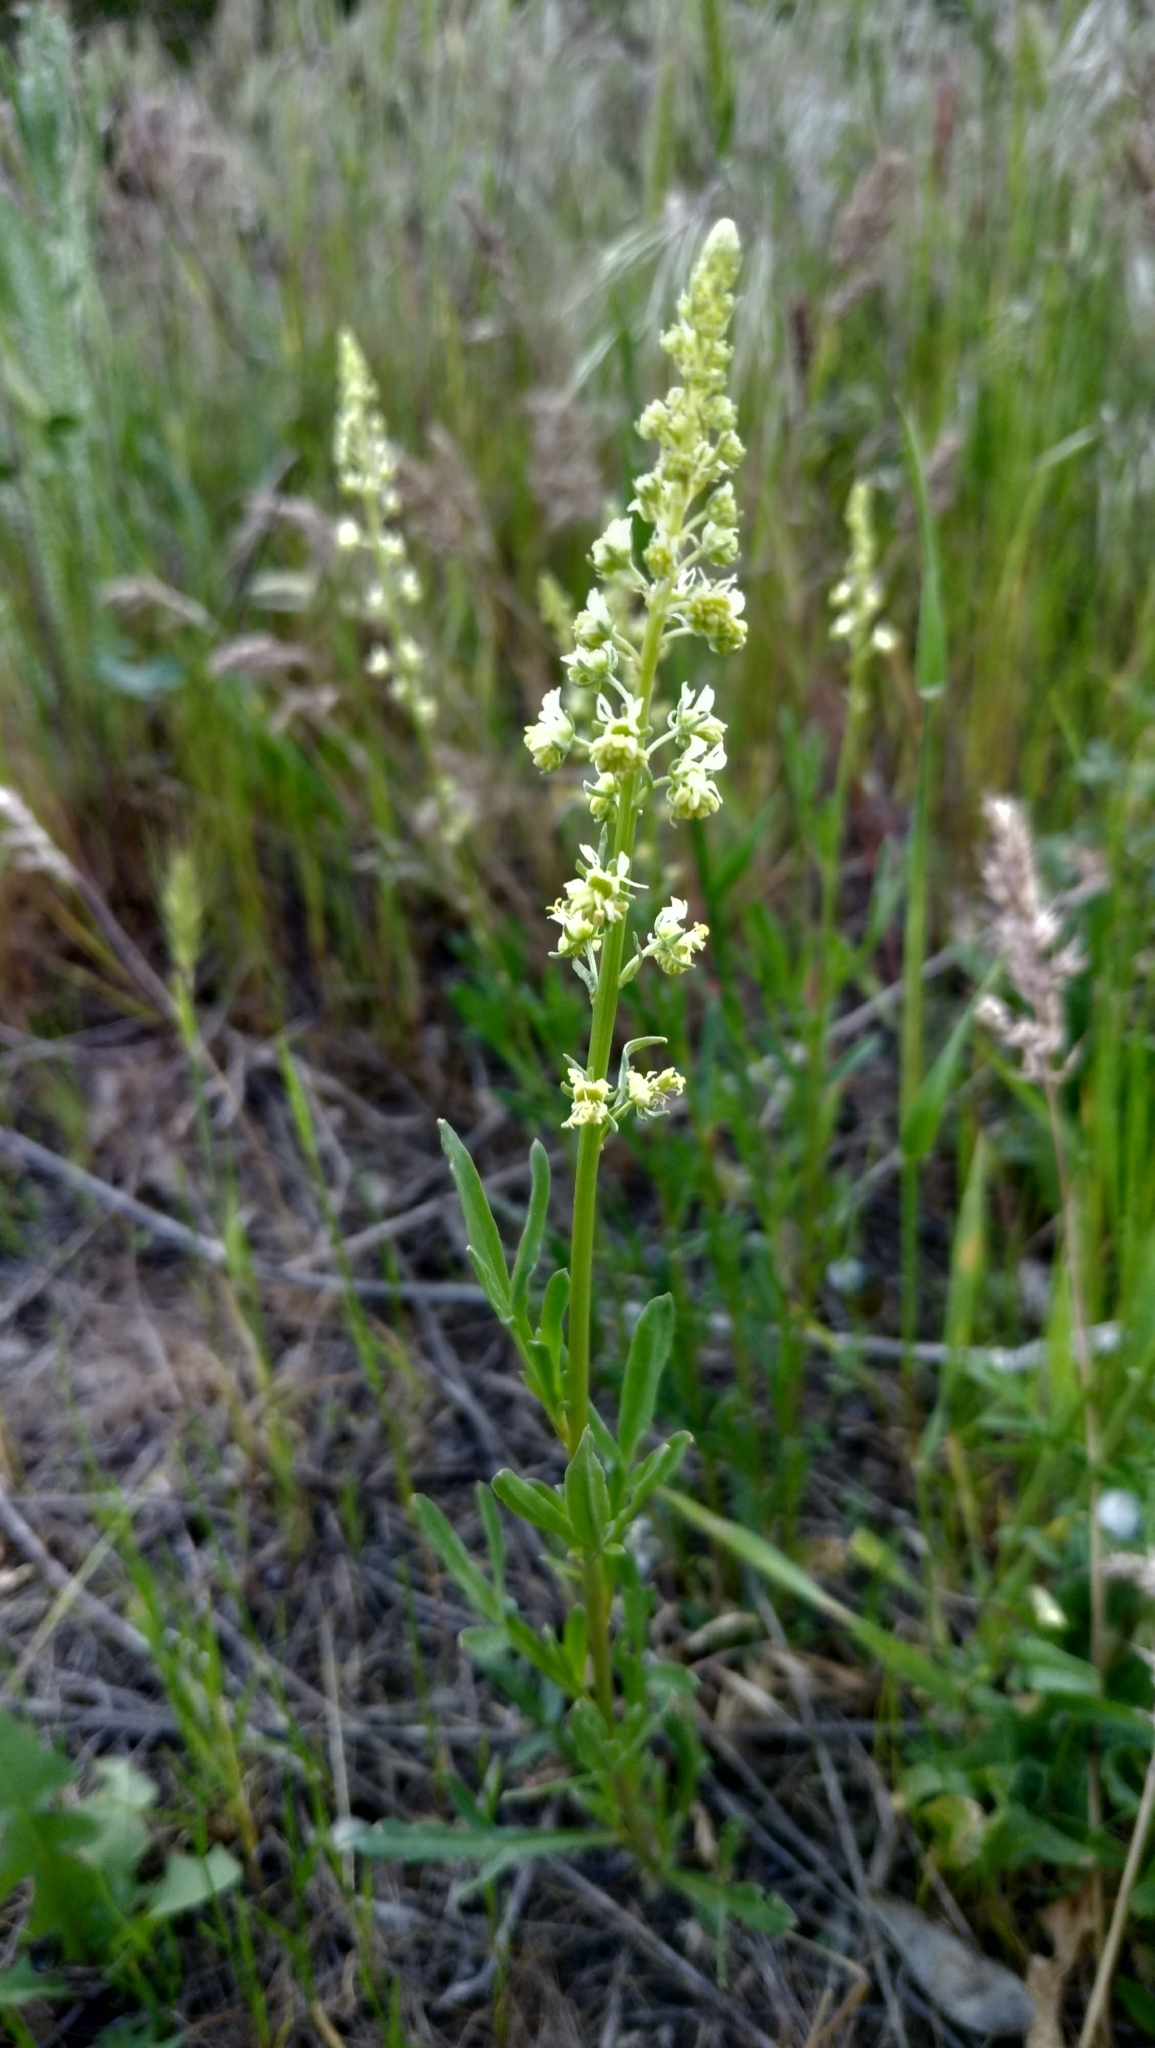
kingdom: Plantae
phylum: Tracheophyta
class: Magnoliopsida
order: Brassicales
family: Resedaceae
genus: Reseda
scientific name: Reseda lutea
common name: Wild mignonette
